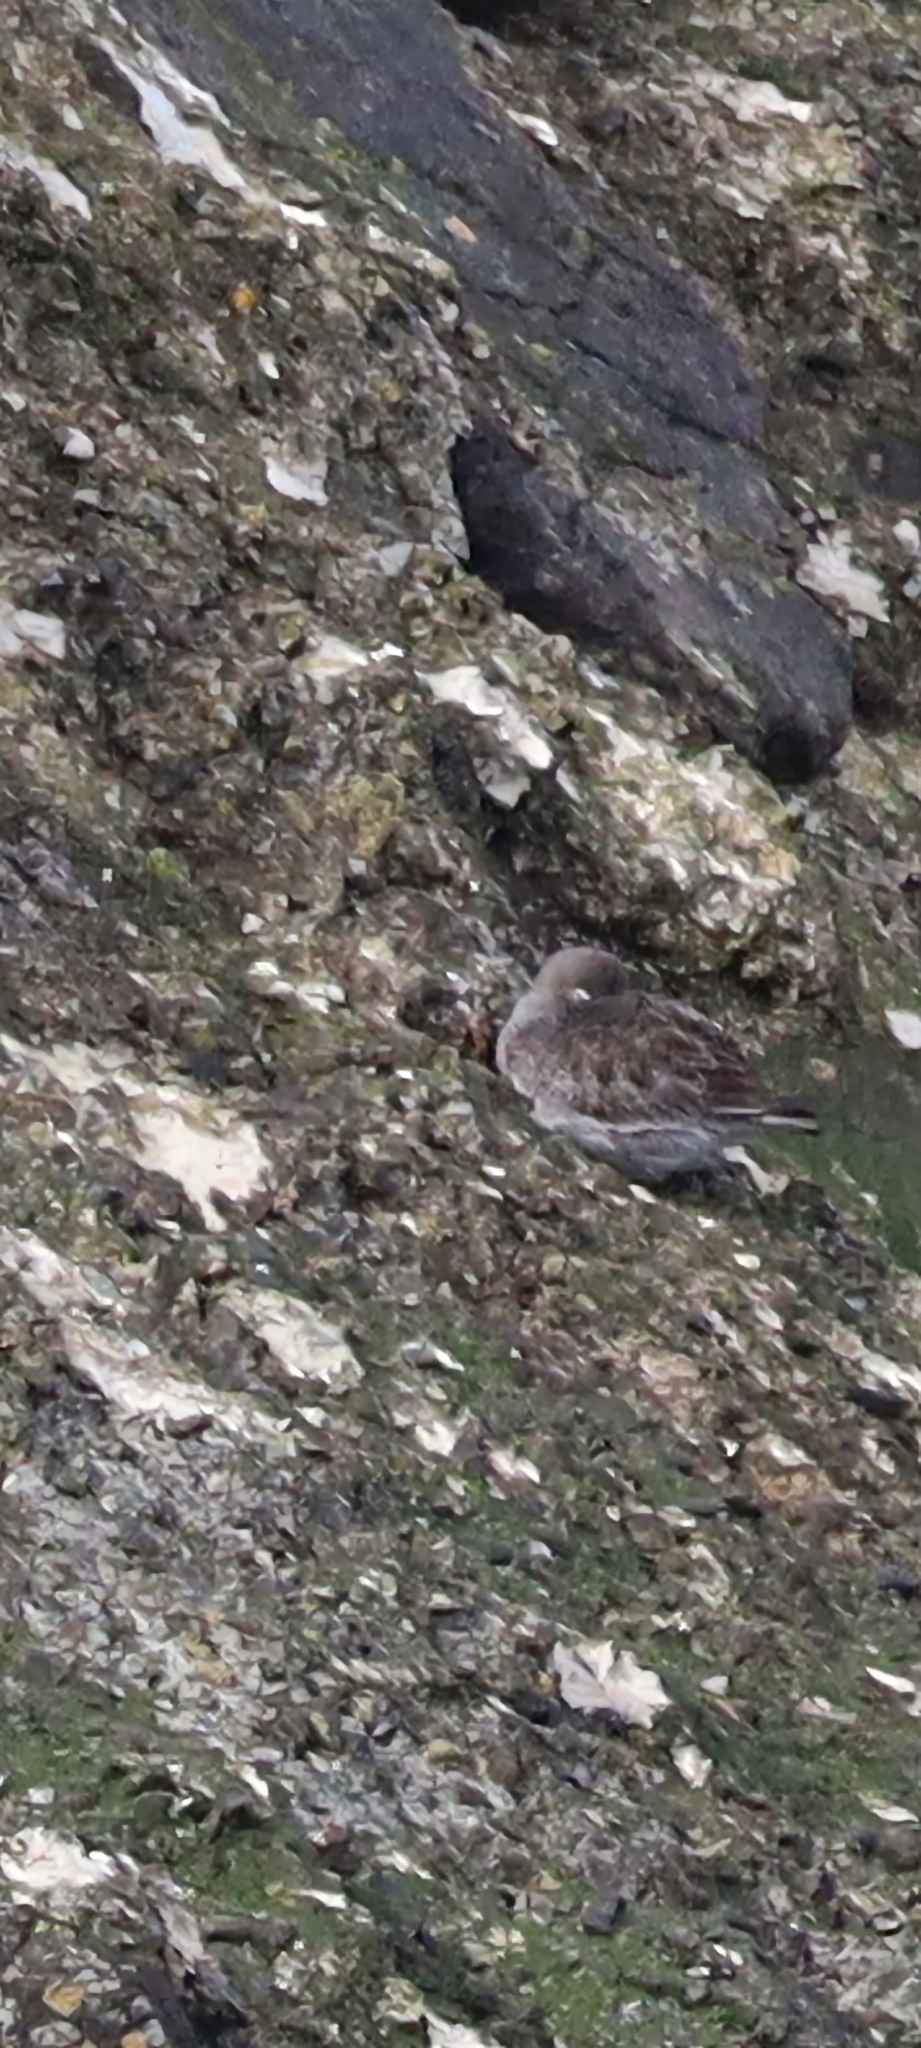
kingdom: Animalia
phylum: Chordata
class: Aves
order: Charadriiformes
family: Scolopacidae
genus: Calidris
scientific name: Calidris maritima
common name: Purple sandpiper
